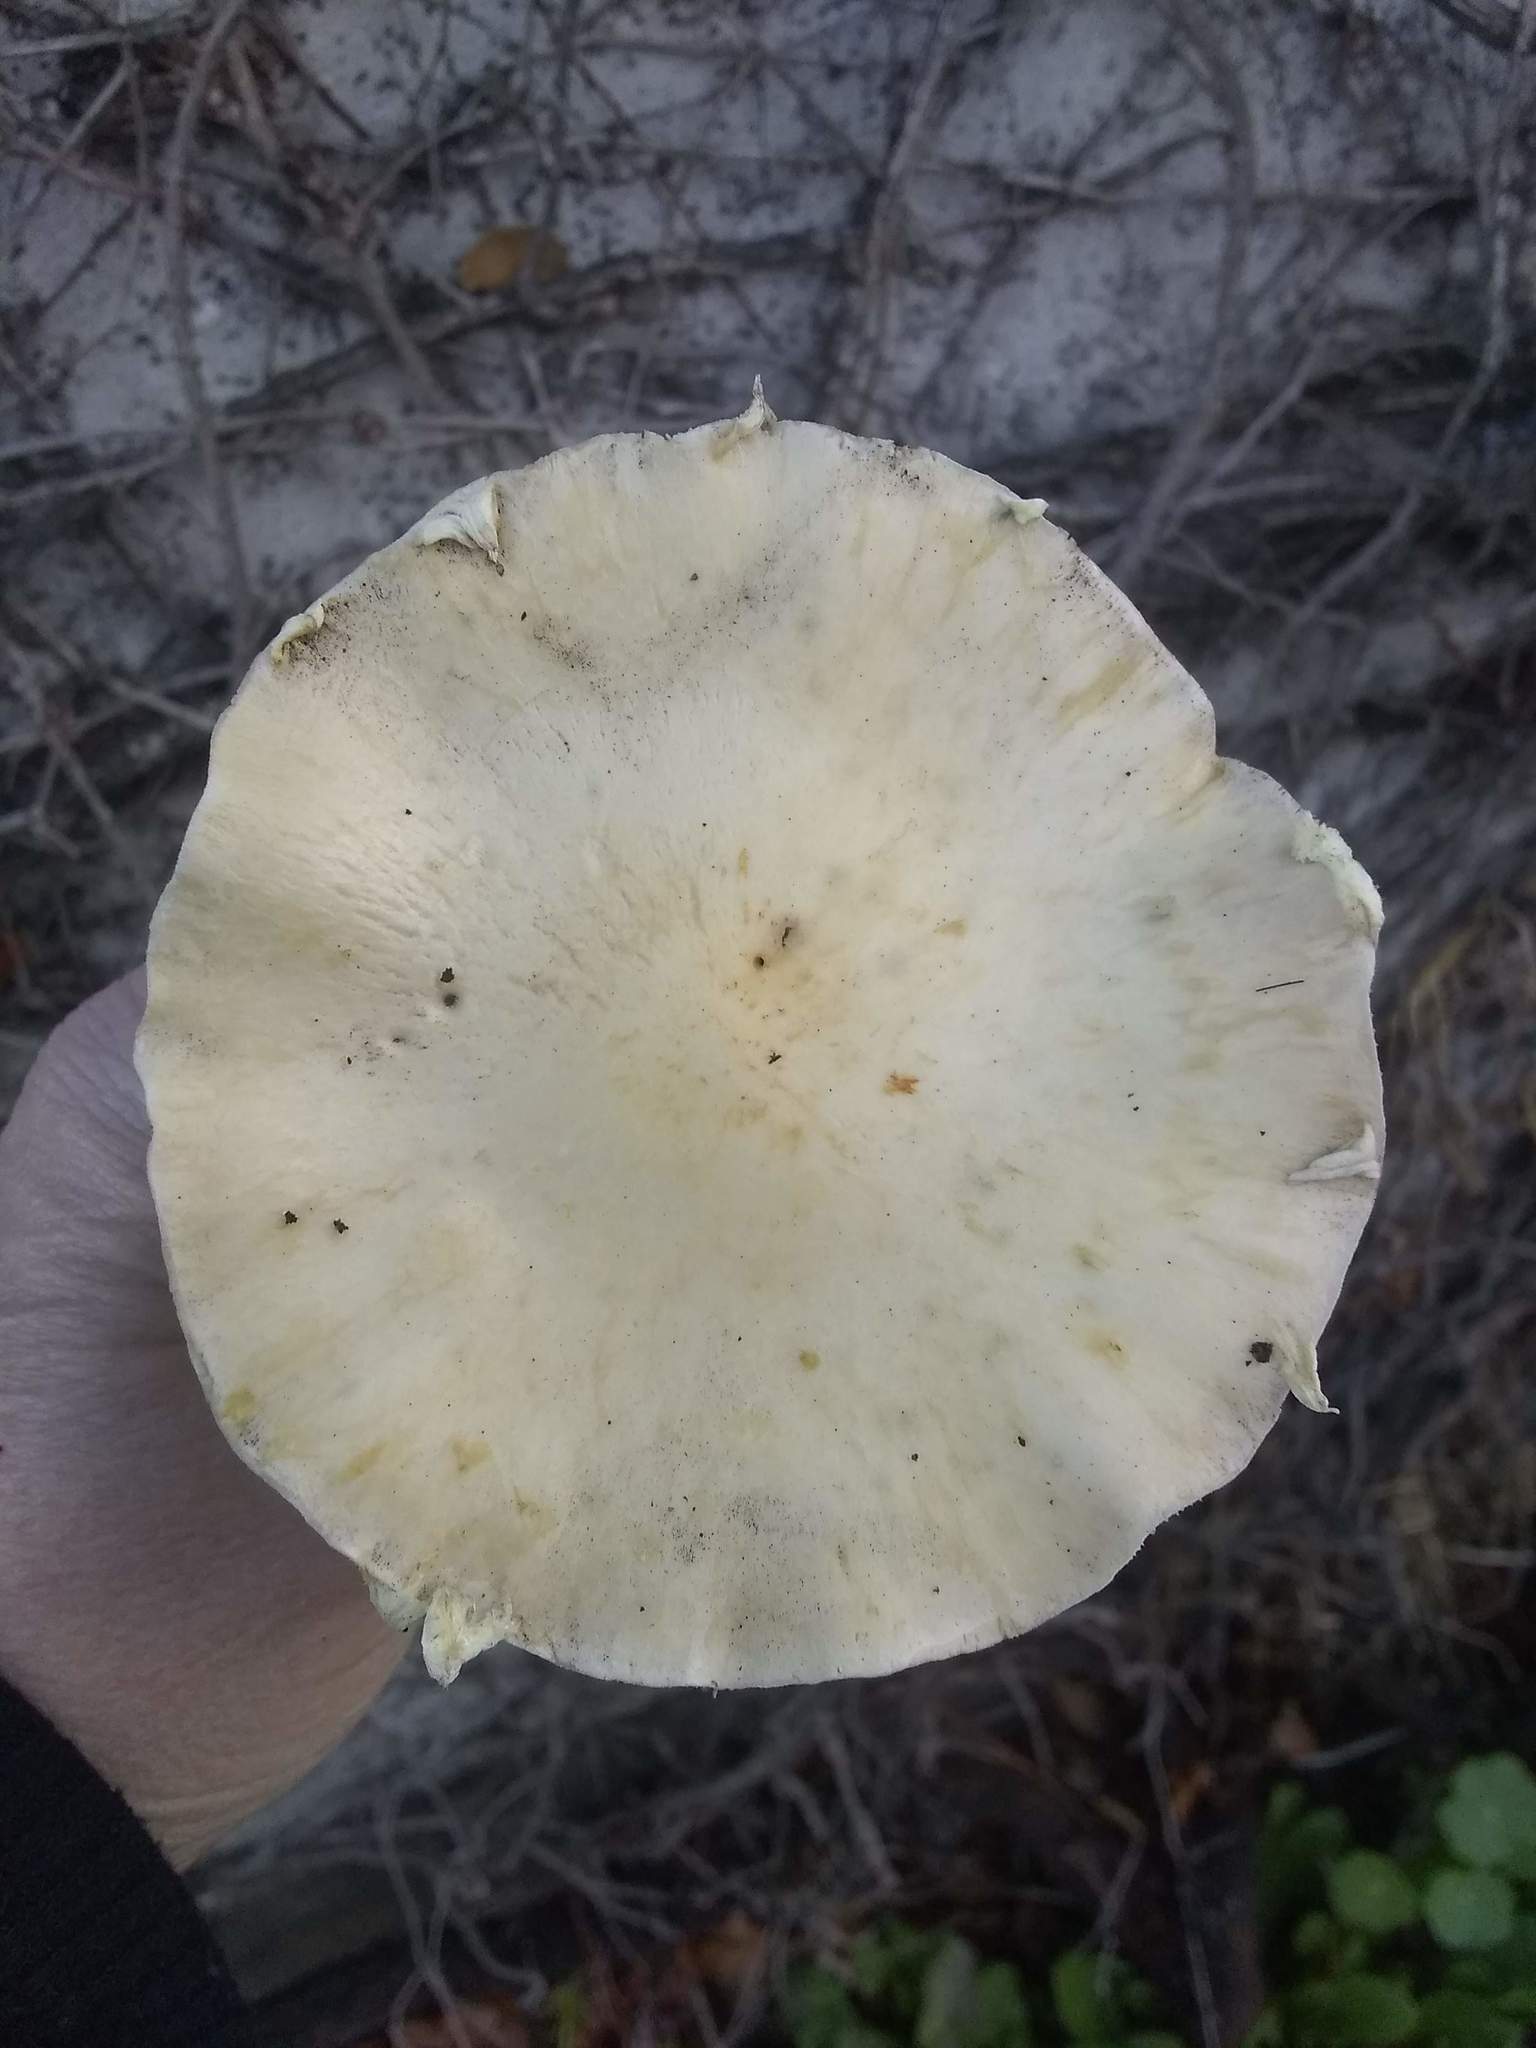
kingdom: Fungi
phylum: Basidiomycota
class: Agaricomycetes
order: Agaricales
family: Strophariaceae
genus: Leratiomyces
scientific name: Leratiomyces percevalii
